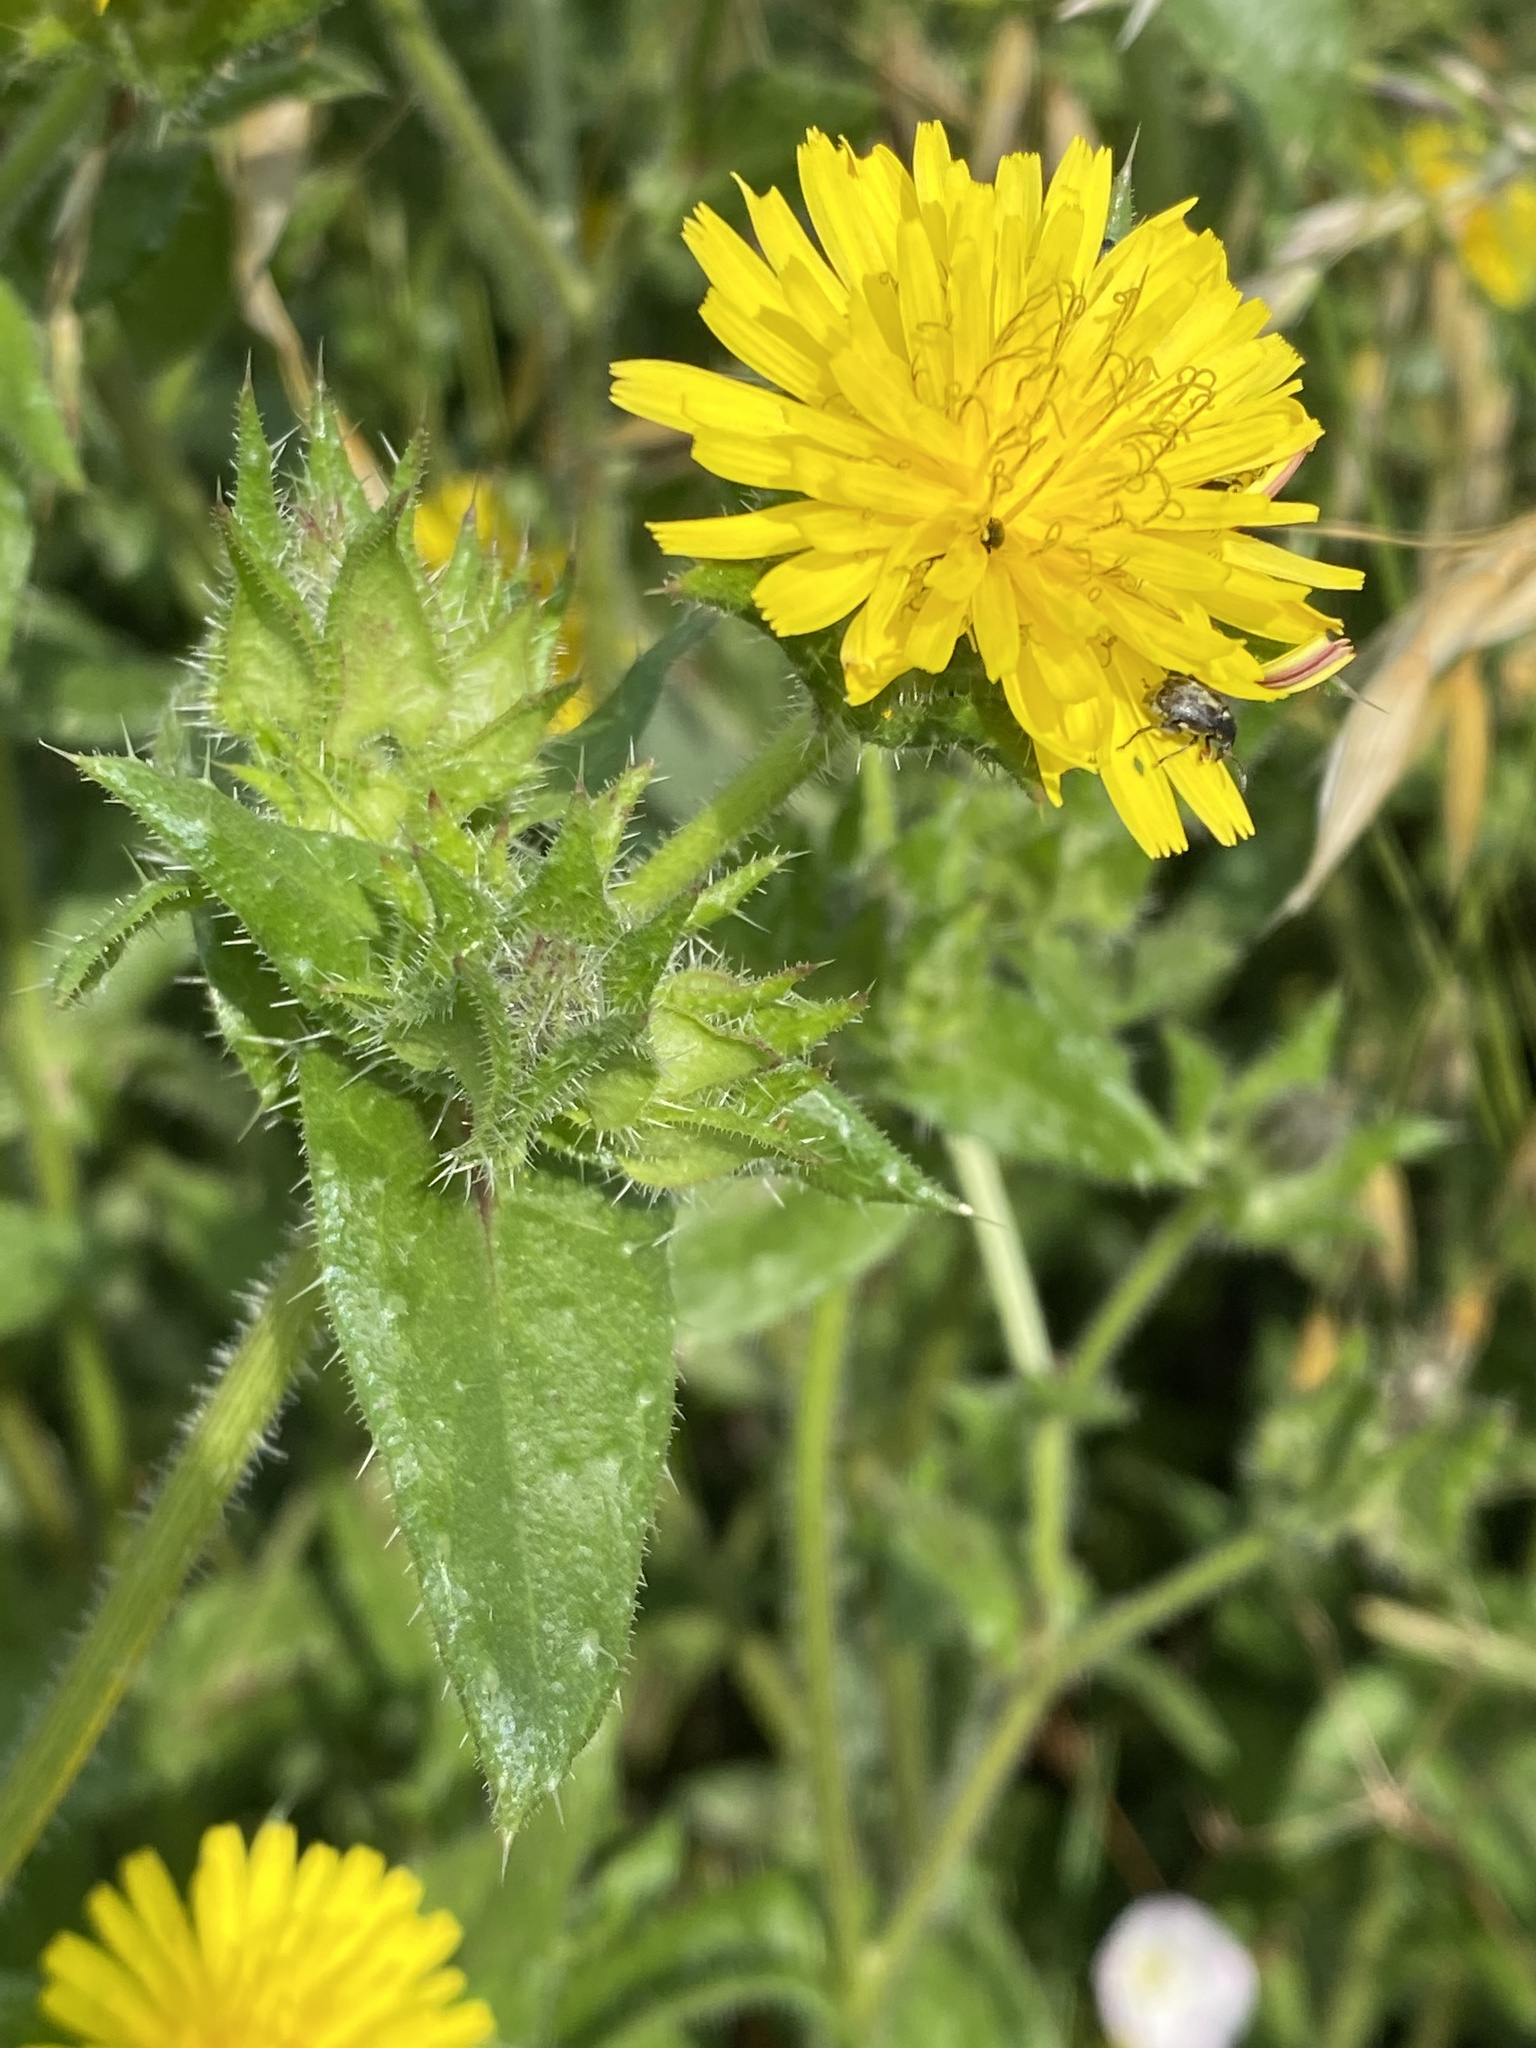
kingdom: Plantae
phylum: Tracheophyta
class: Magnoliopsida
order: Asterales
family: Asteraceae
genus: Helminthotheca
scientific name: Helminthotheca echioides
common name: Ox-tongue
